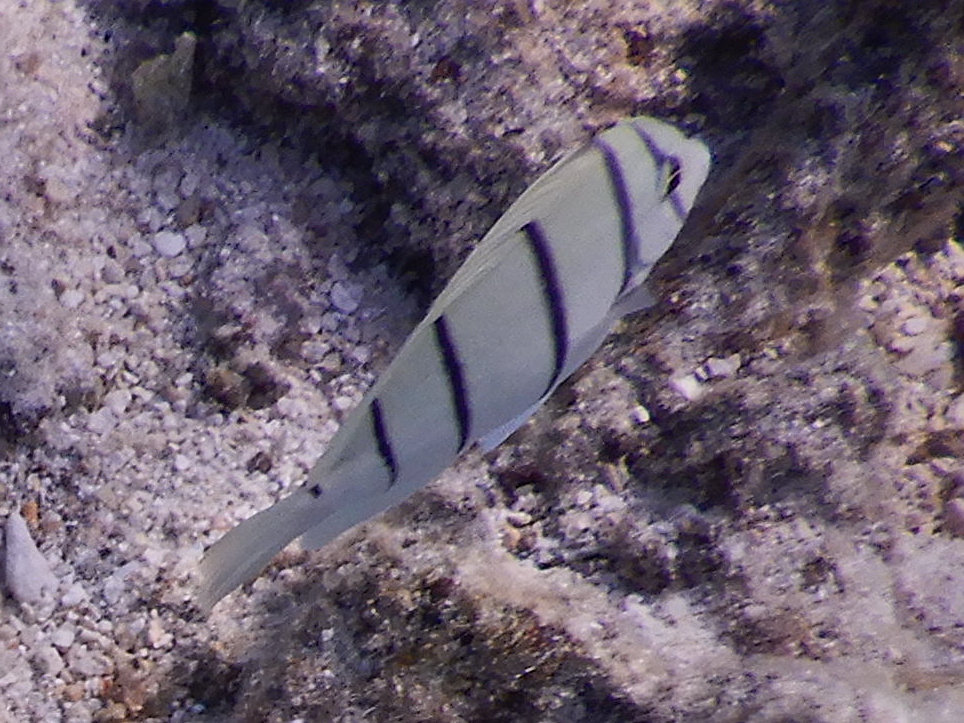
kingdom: Animalia
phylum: Chordata
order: Perciformes
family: Acanthuridae
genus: Acanthurus
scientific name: Acanthurus triostegus
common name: Convict surgeonfish
